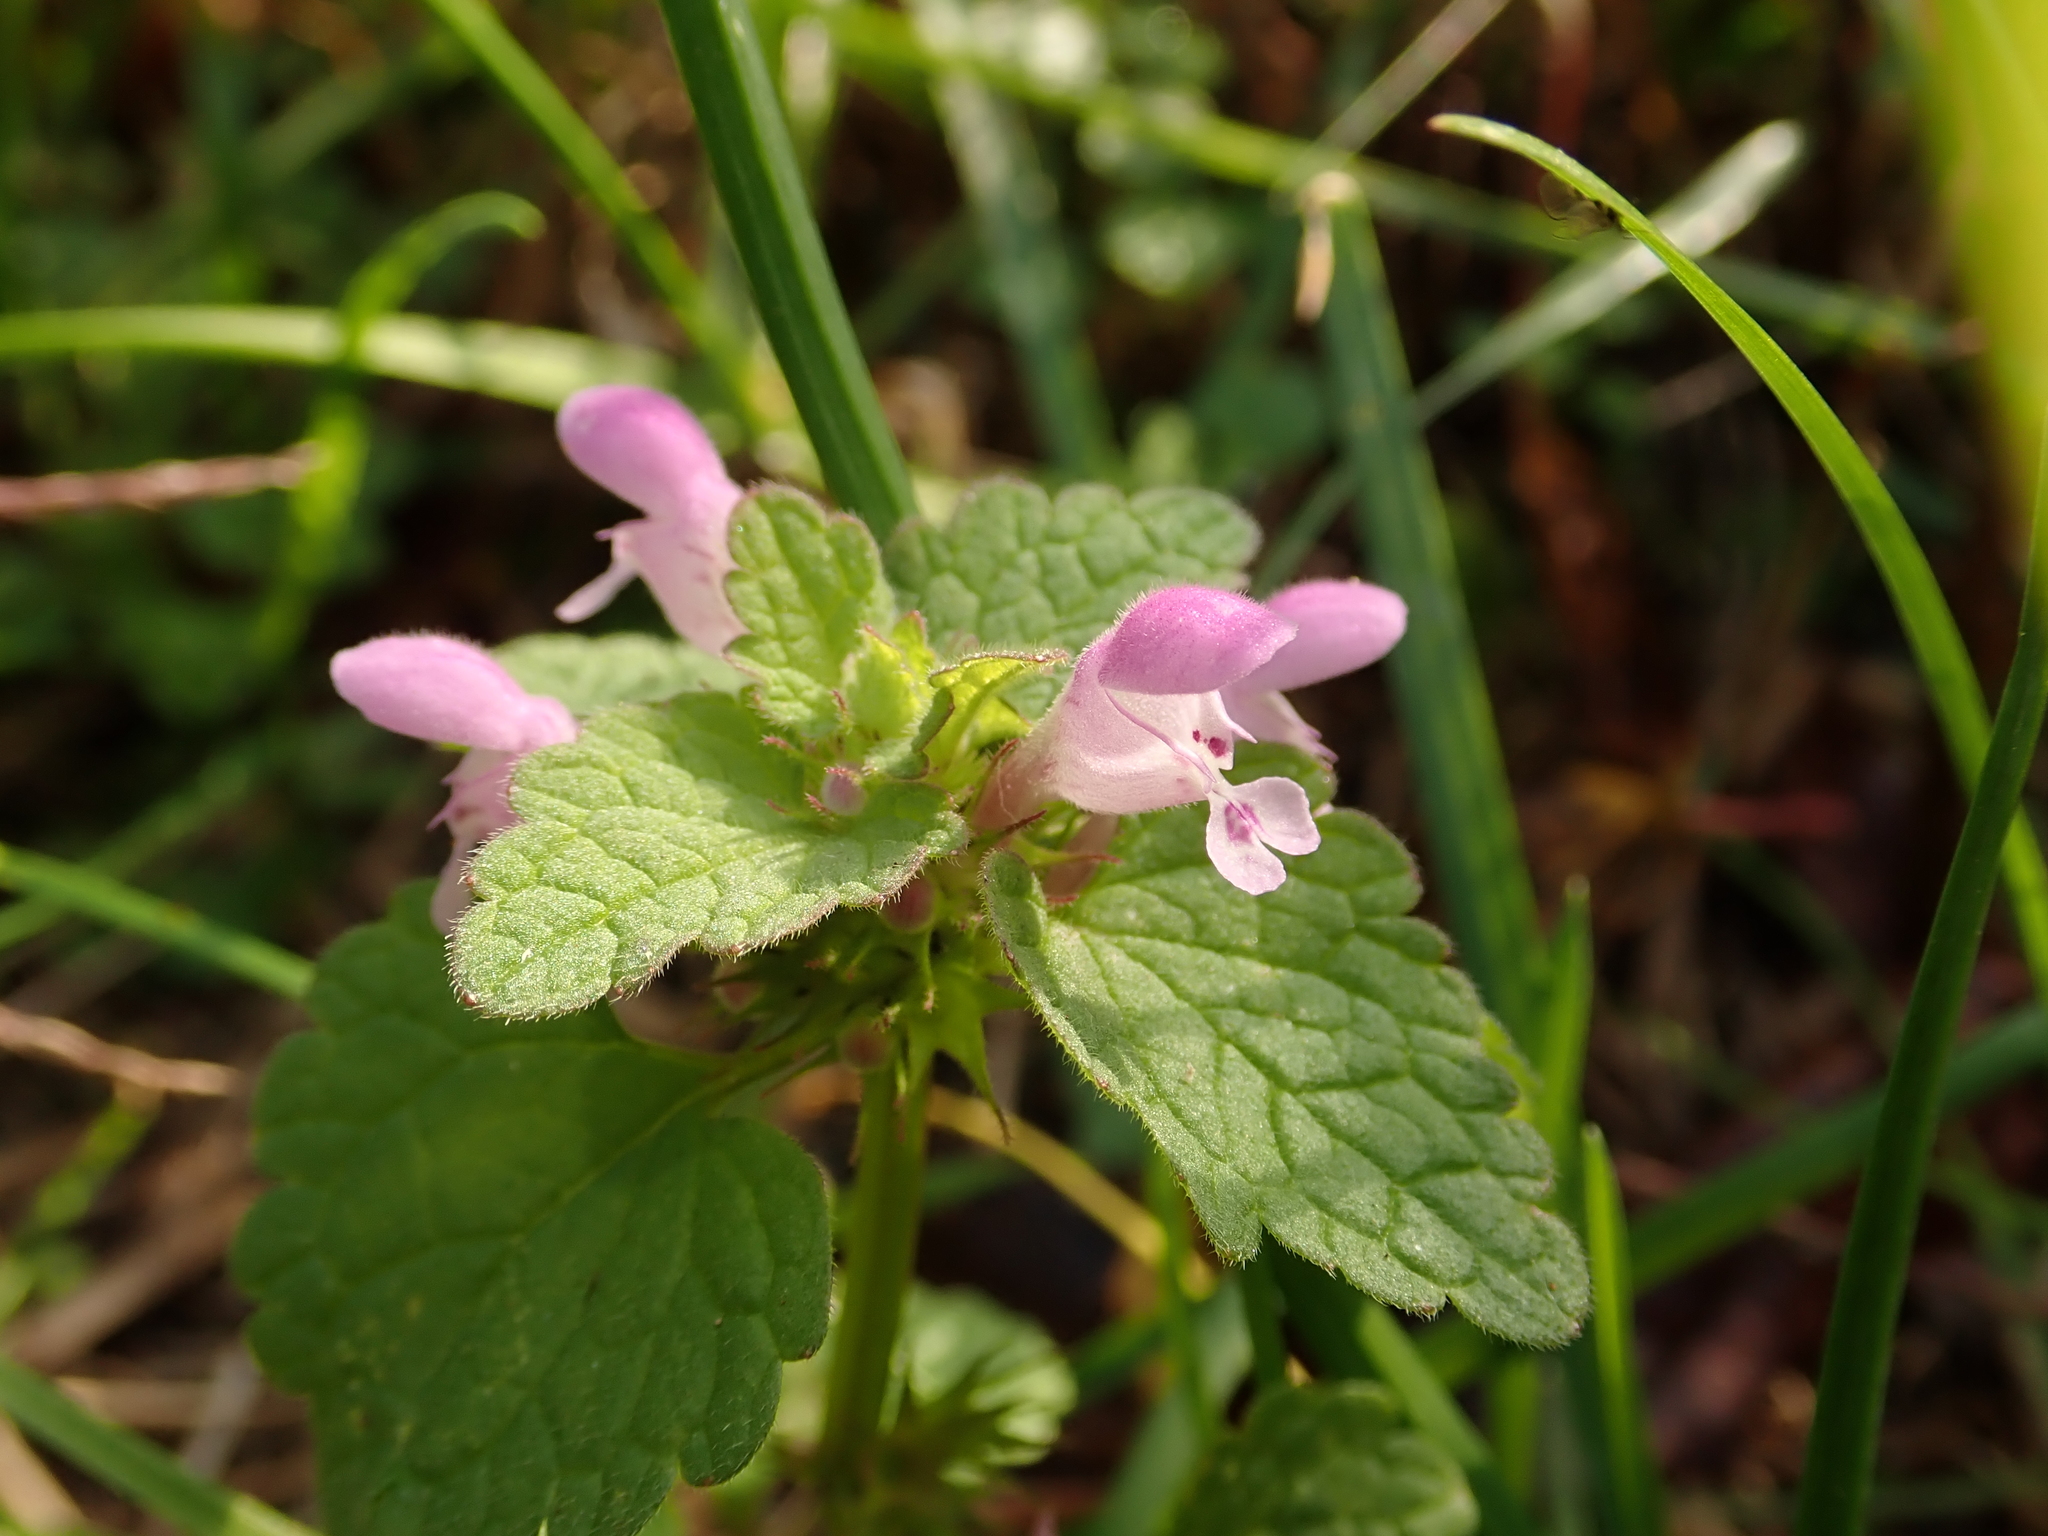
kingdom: Plantae
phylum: Tracheophyta
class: Magnoliopsida
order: Lamiales
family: Lamiaceae
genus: Lamium
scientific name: Lamium purpureum
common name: Red dead-nettle
